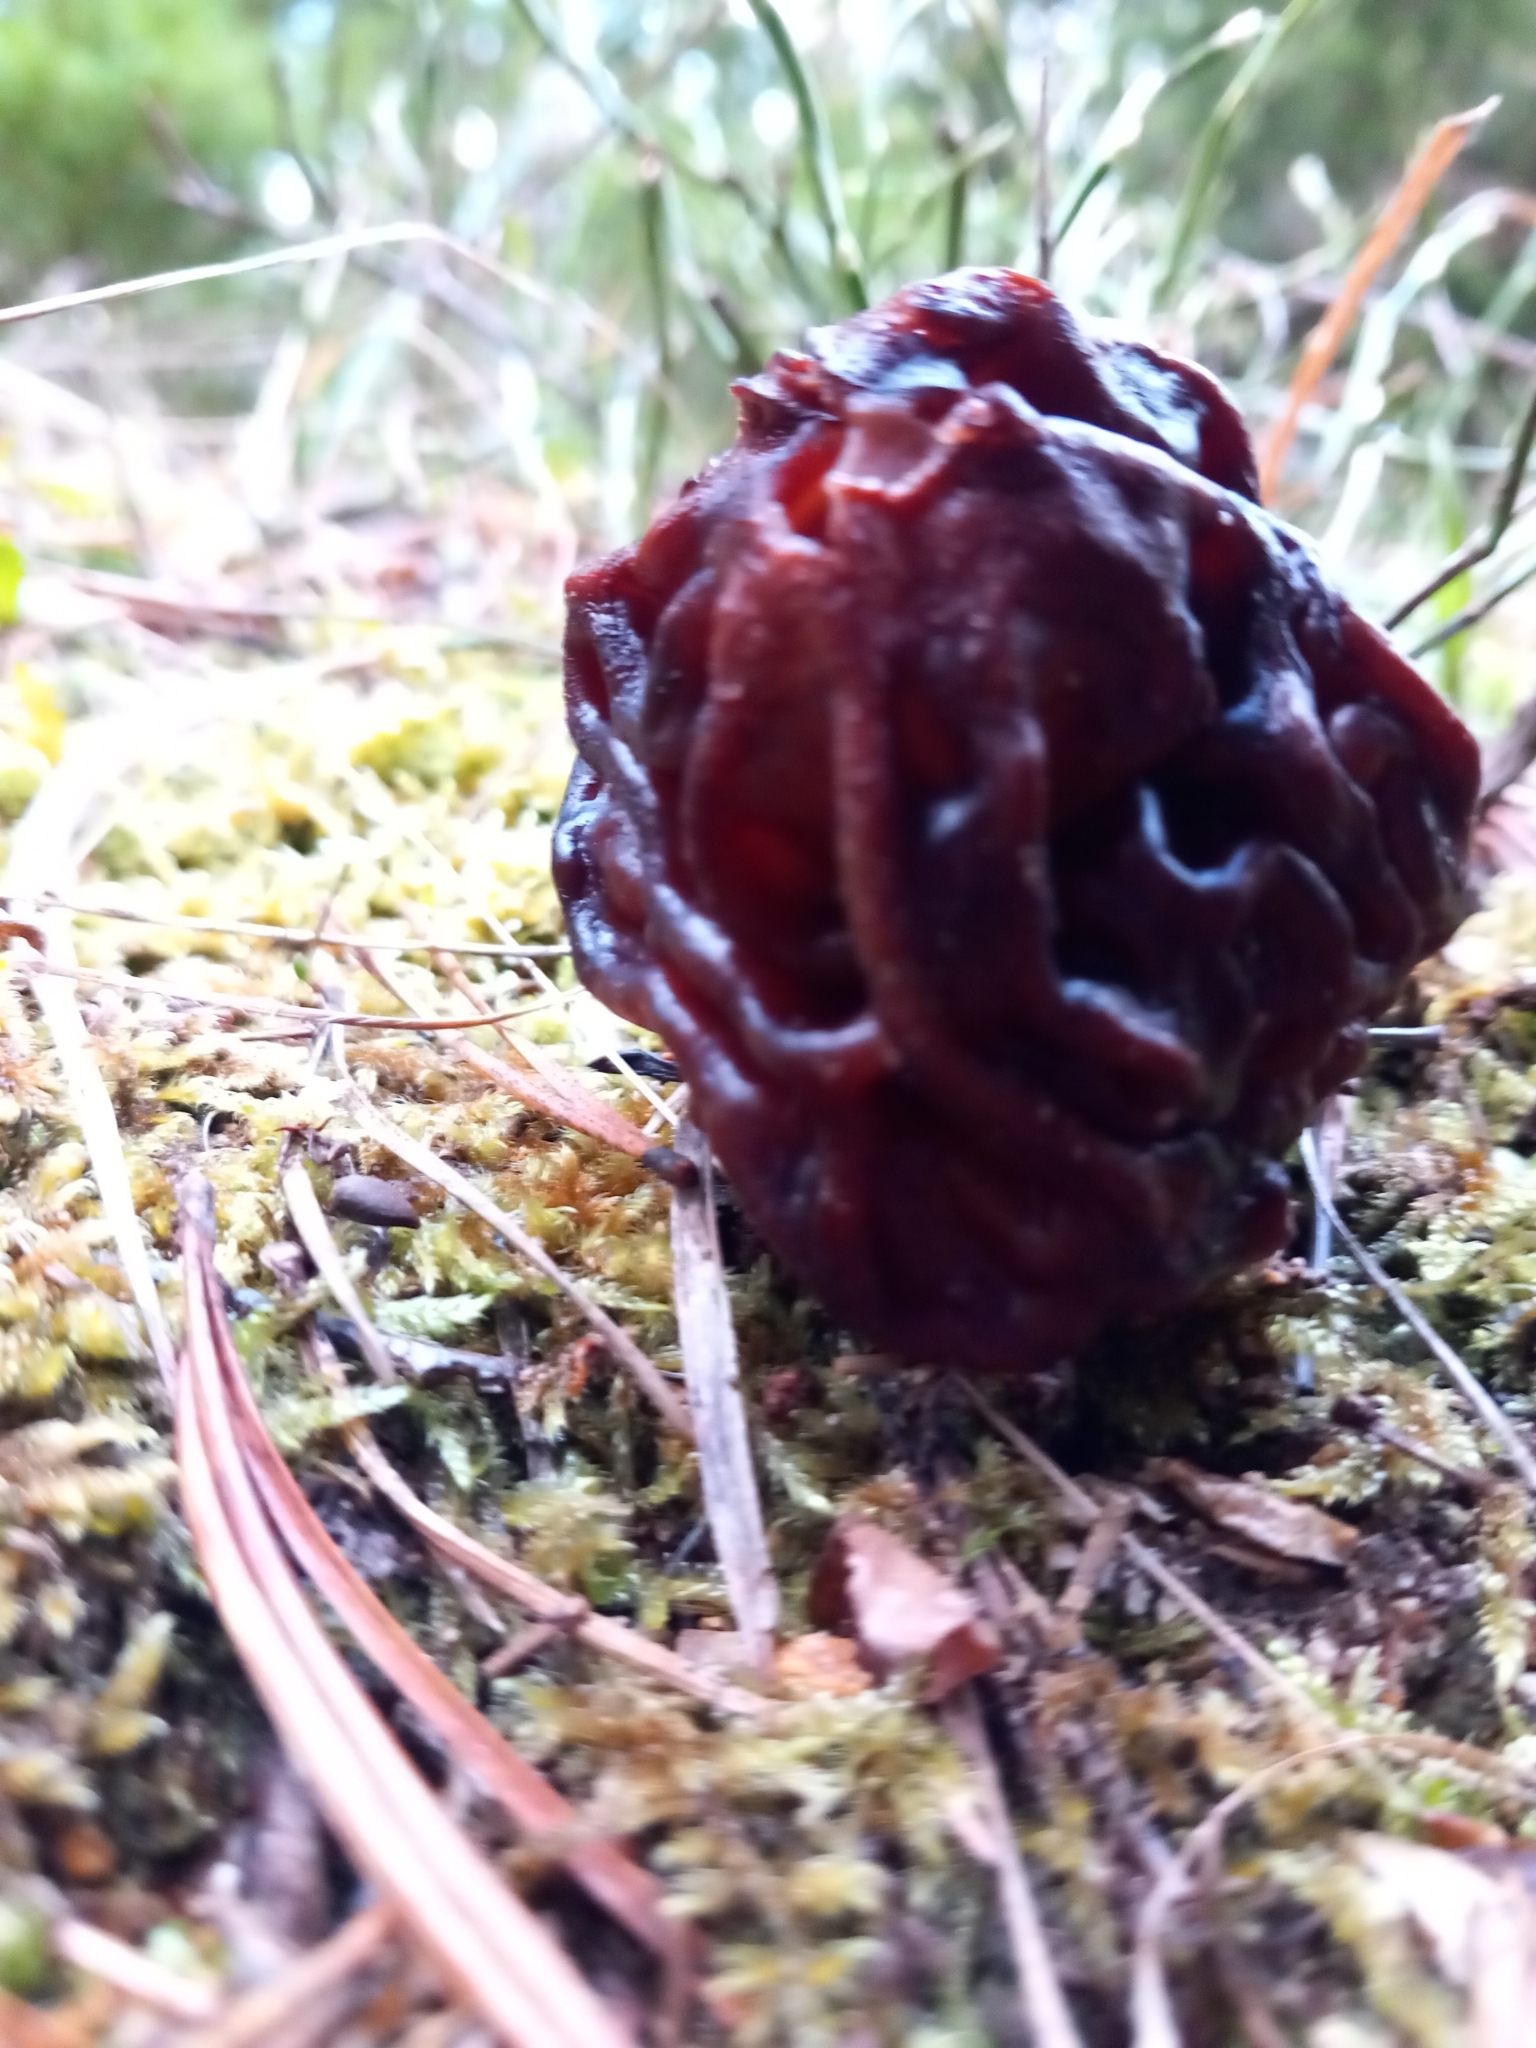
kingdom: Fungi
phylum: Ascomycota
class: Pezizomycetes
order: Pezizales
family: Discinaceae
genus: Gyromitra
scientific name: Gyromitra esculenta
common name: False morel
